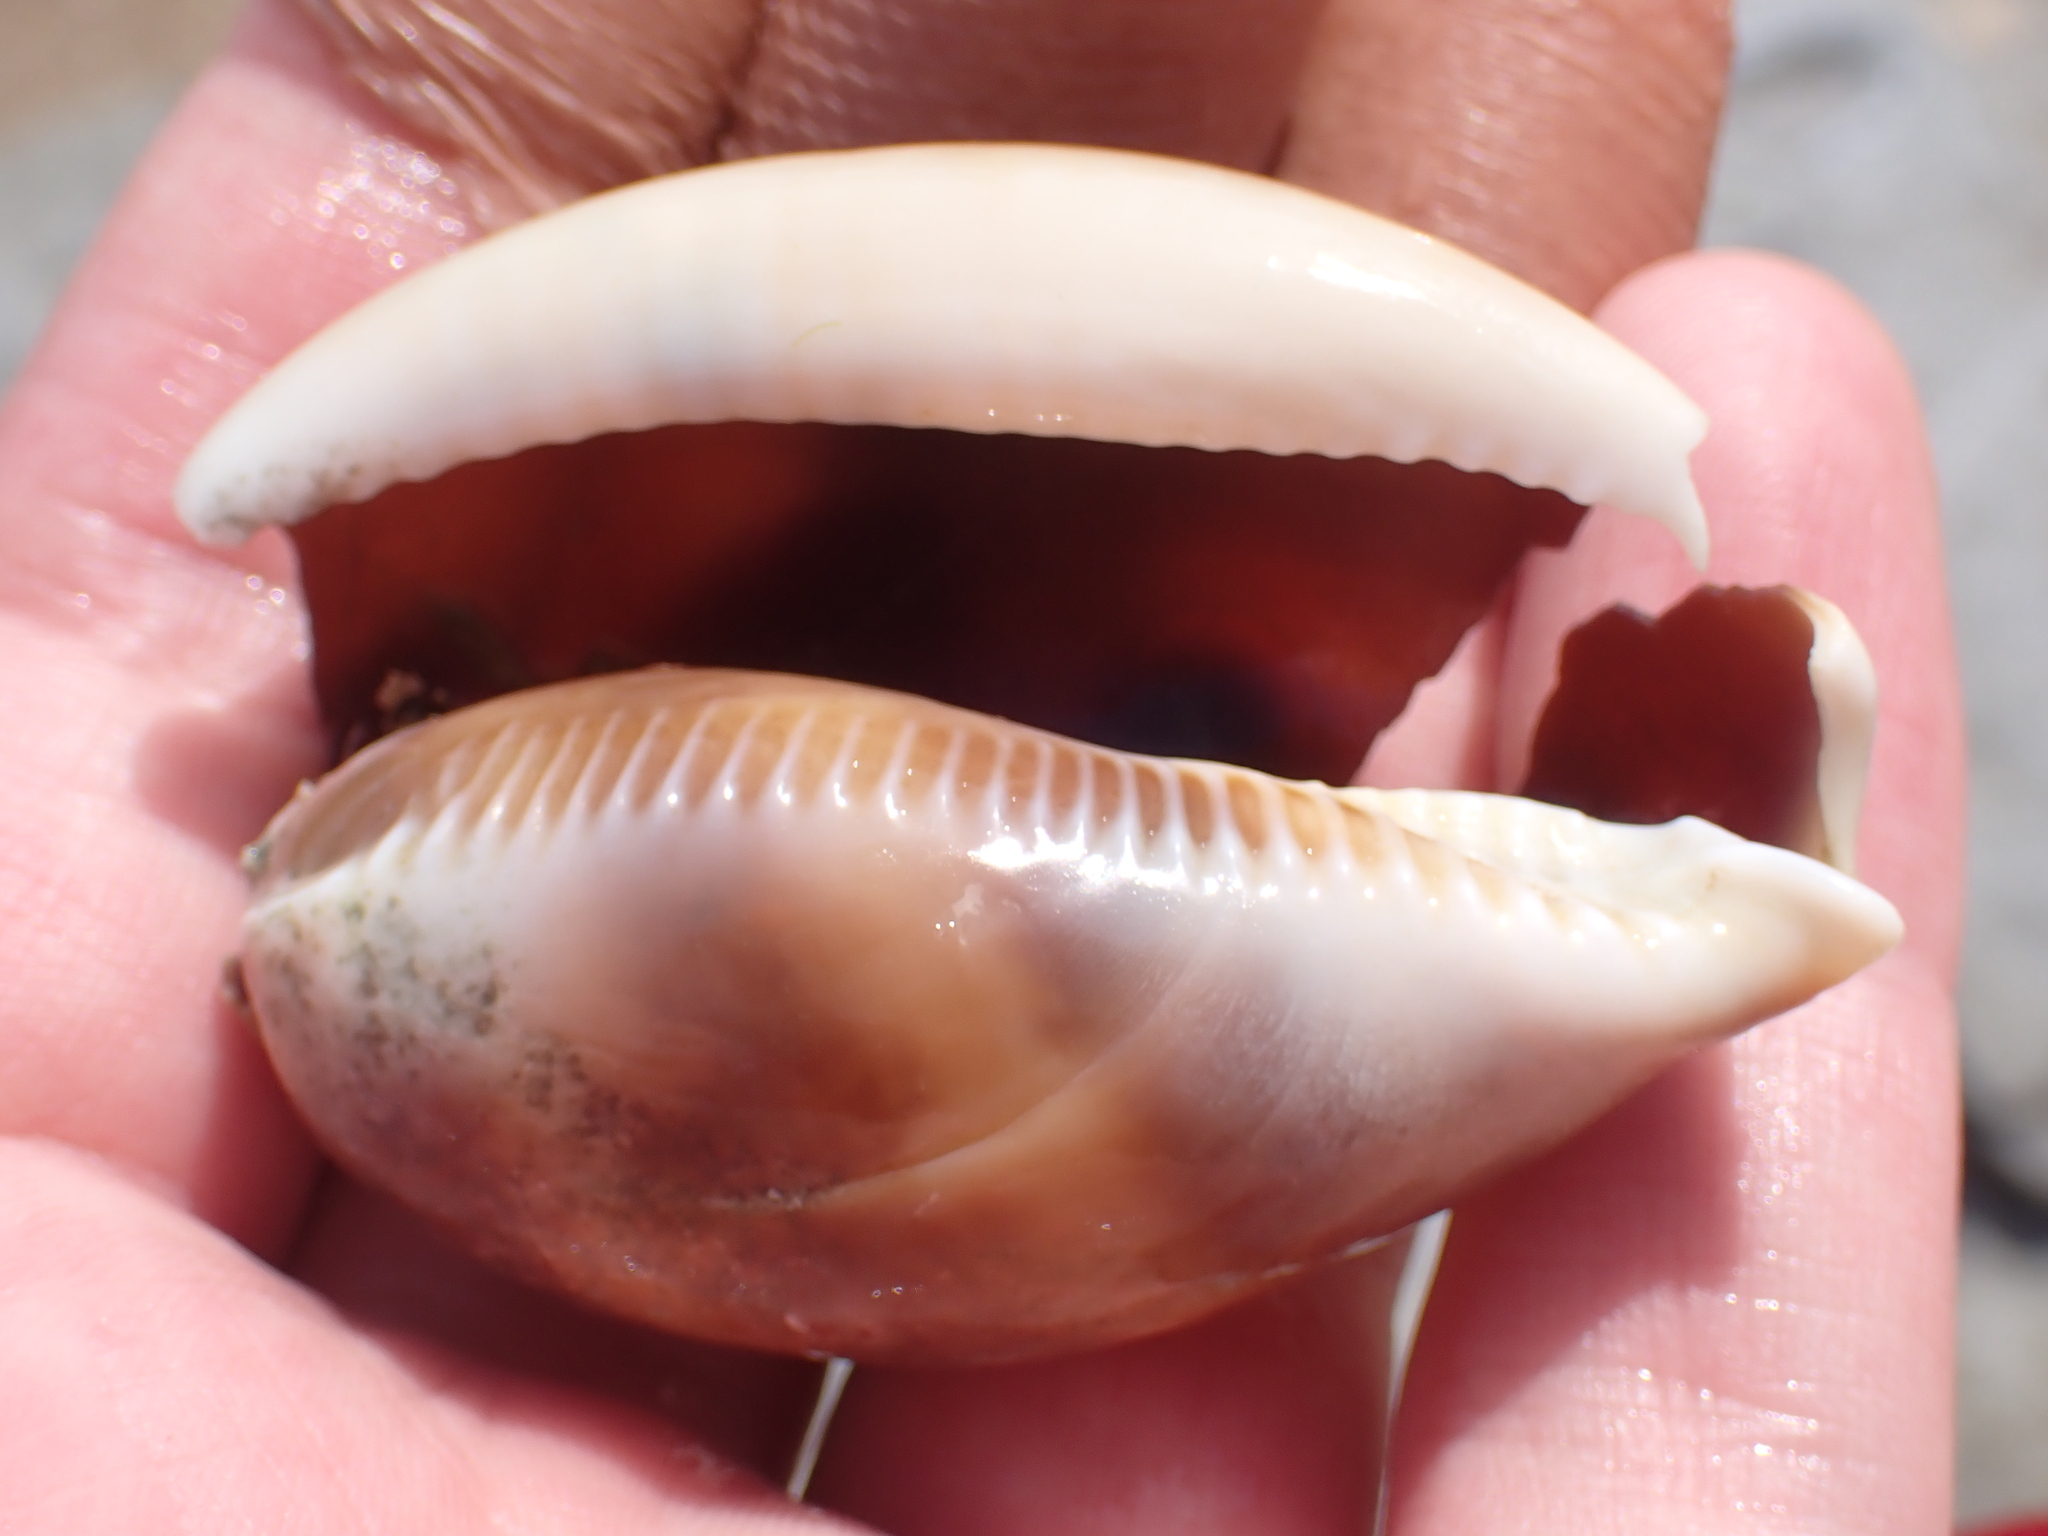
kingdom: Animalia
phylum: Mollusca
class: Gastropoda
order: Littorinimorpha
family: Cypraeidae
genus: Lyncina
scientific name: Lyncina vitellus
